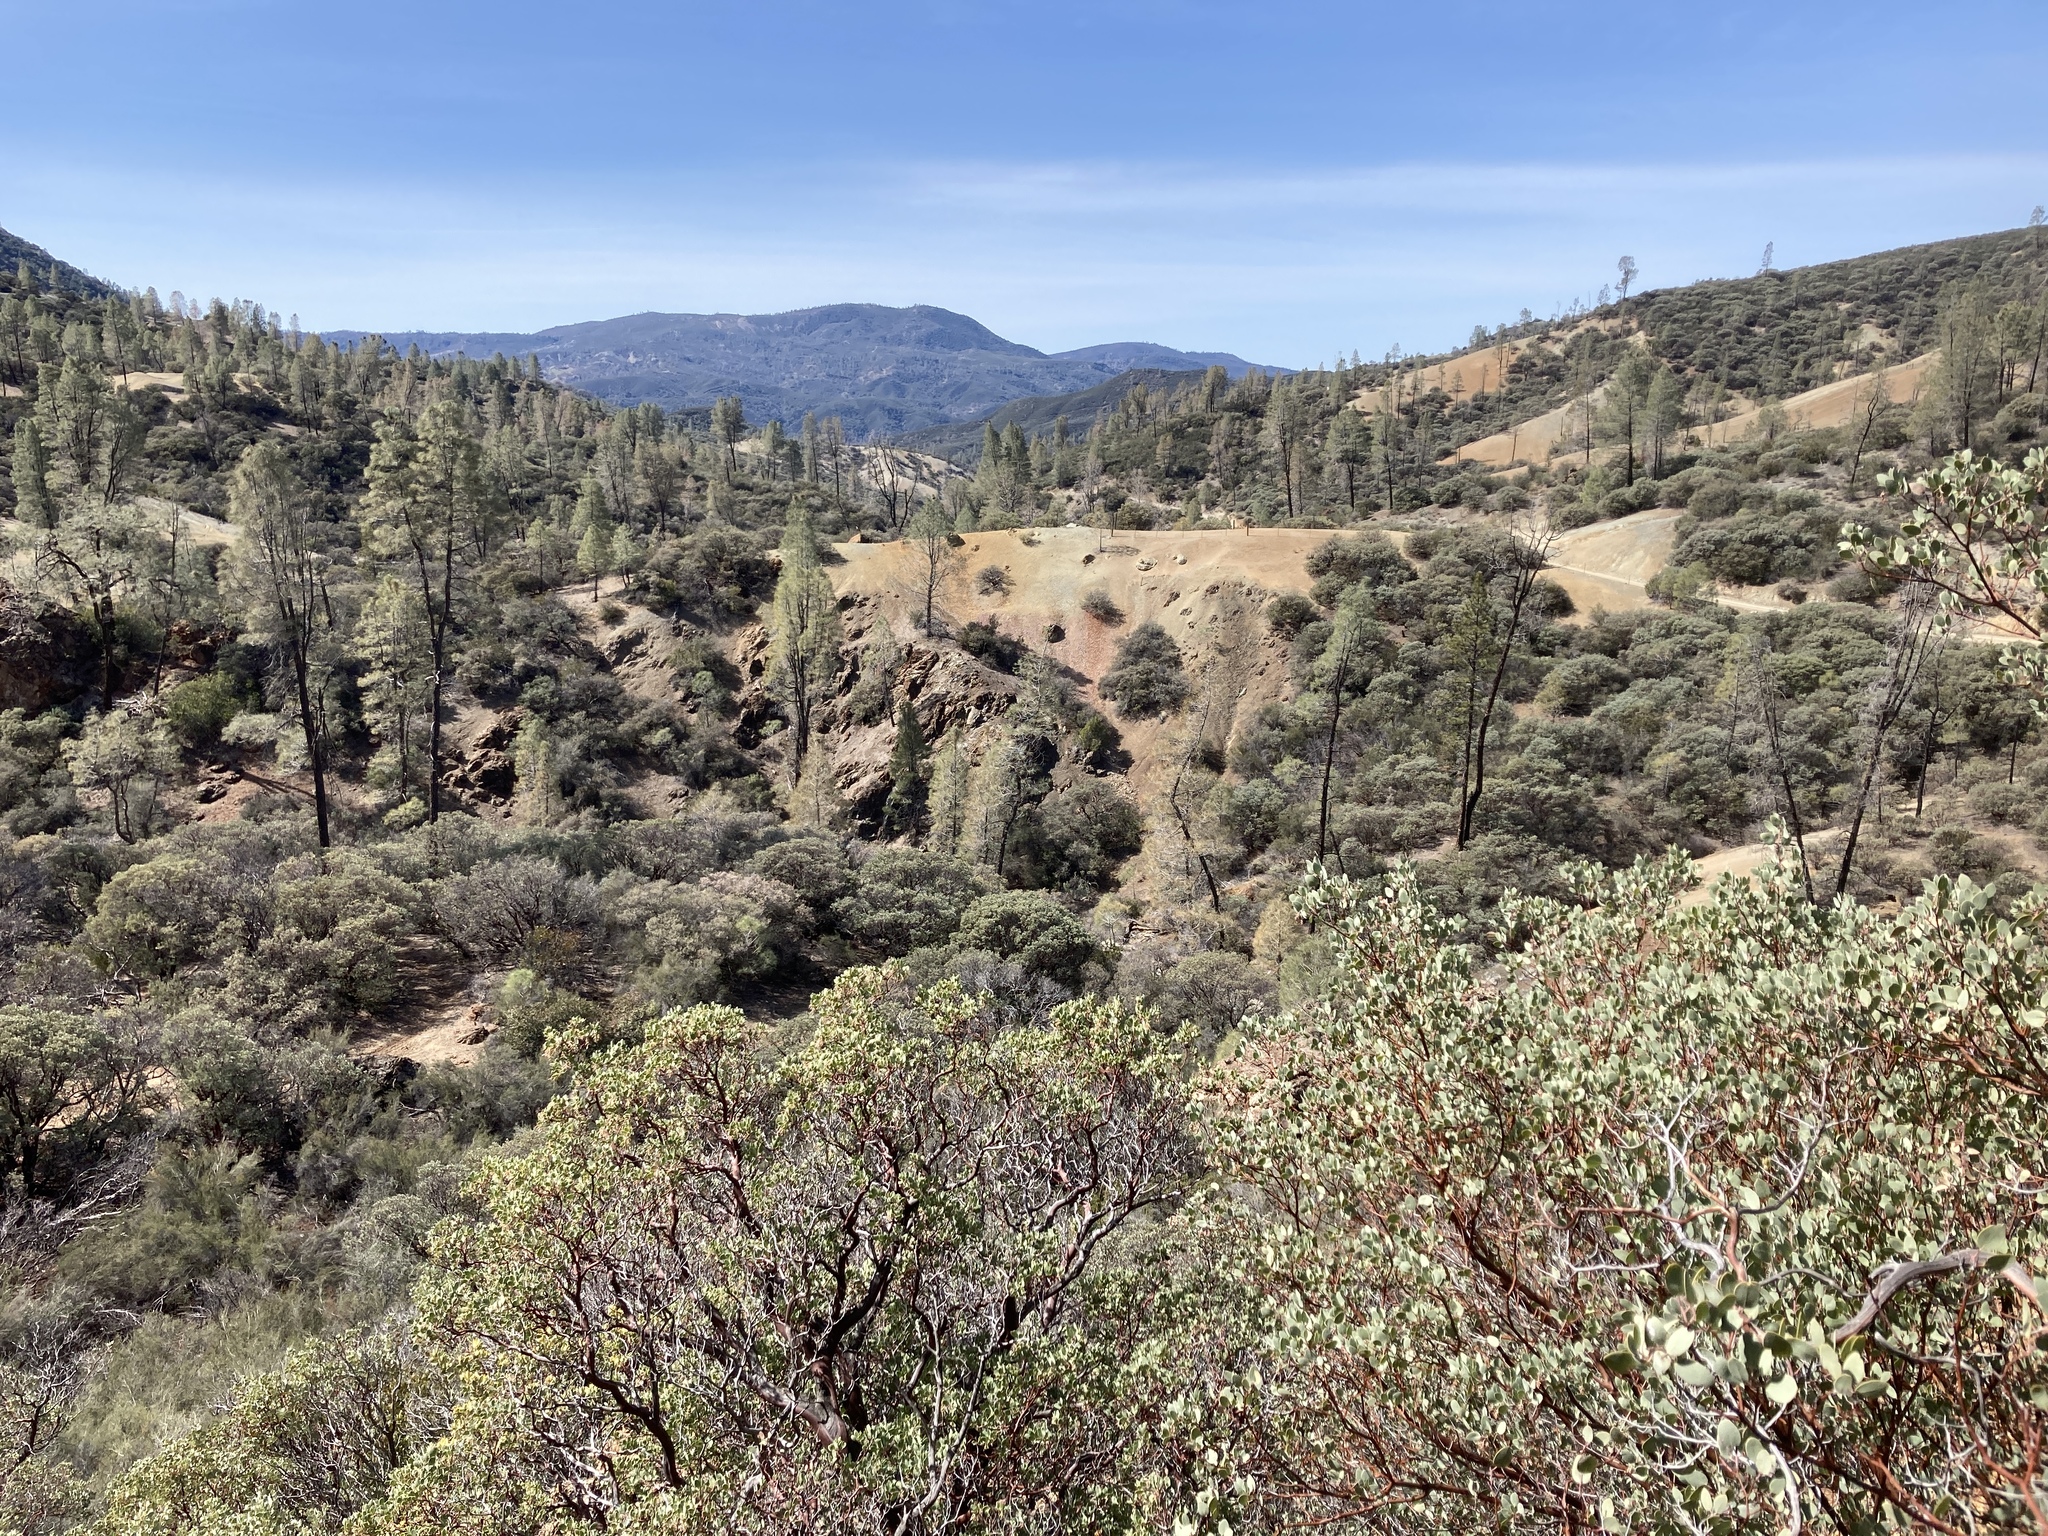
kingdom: Plantae
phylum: Tracheophyta
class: Magnoliopsida
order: Ericales
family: Ericaceae
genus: Arctostaphylos
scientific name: Arctostaphylos glauca
